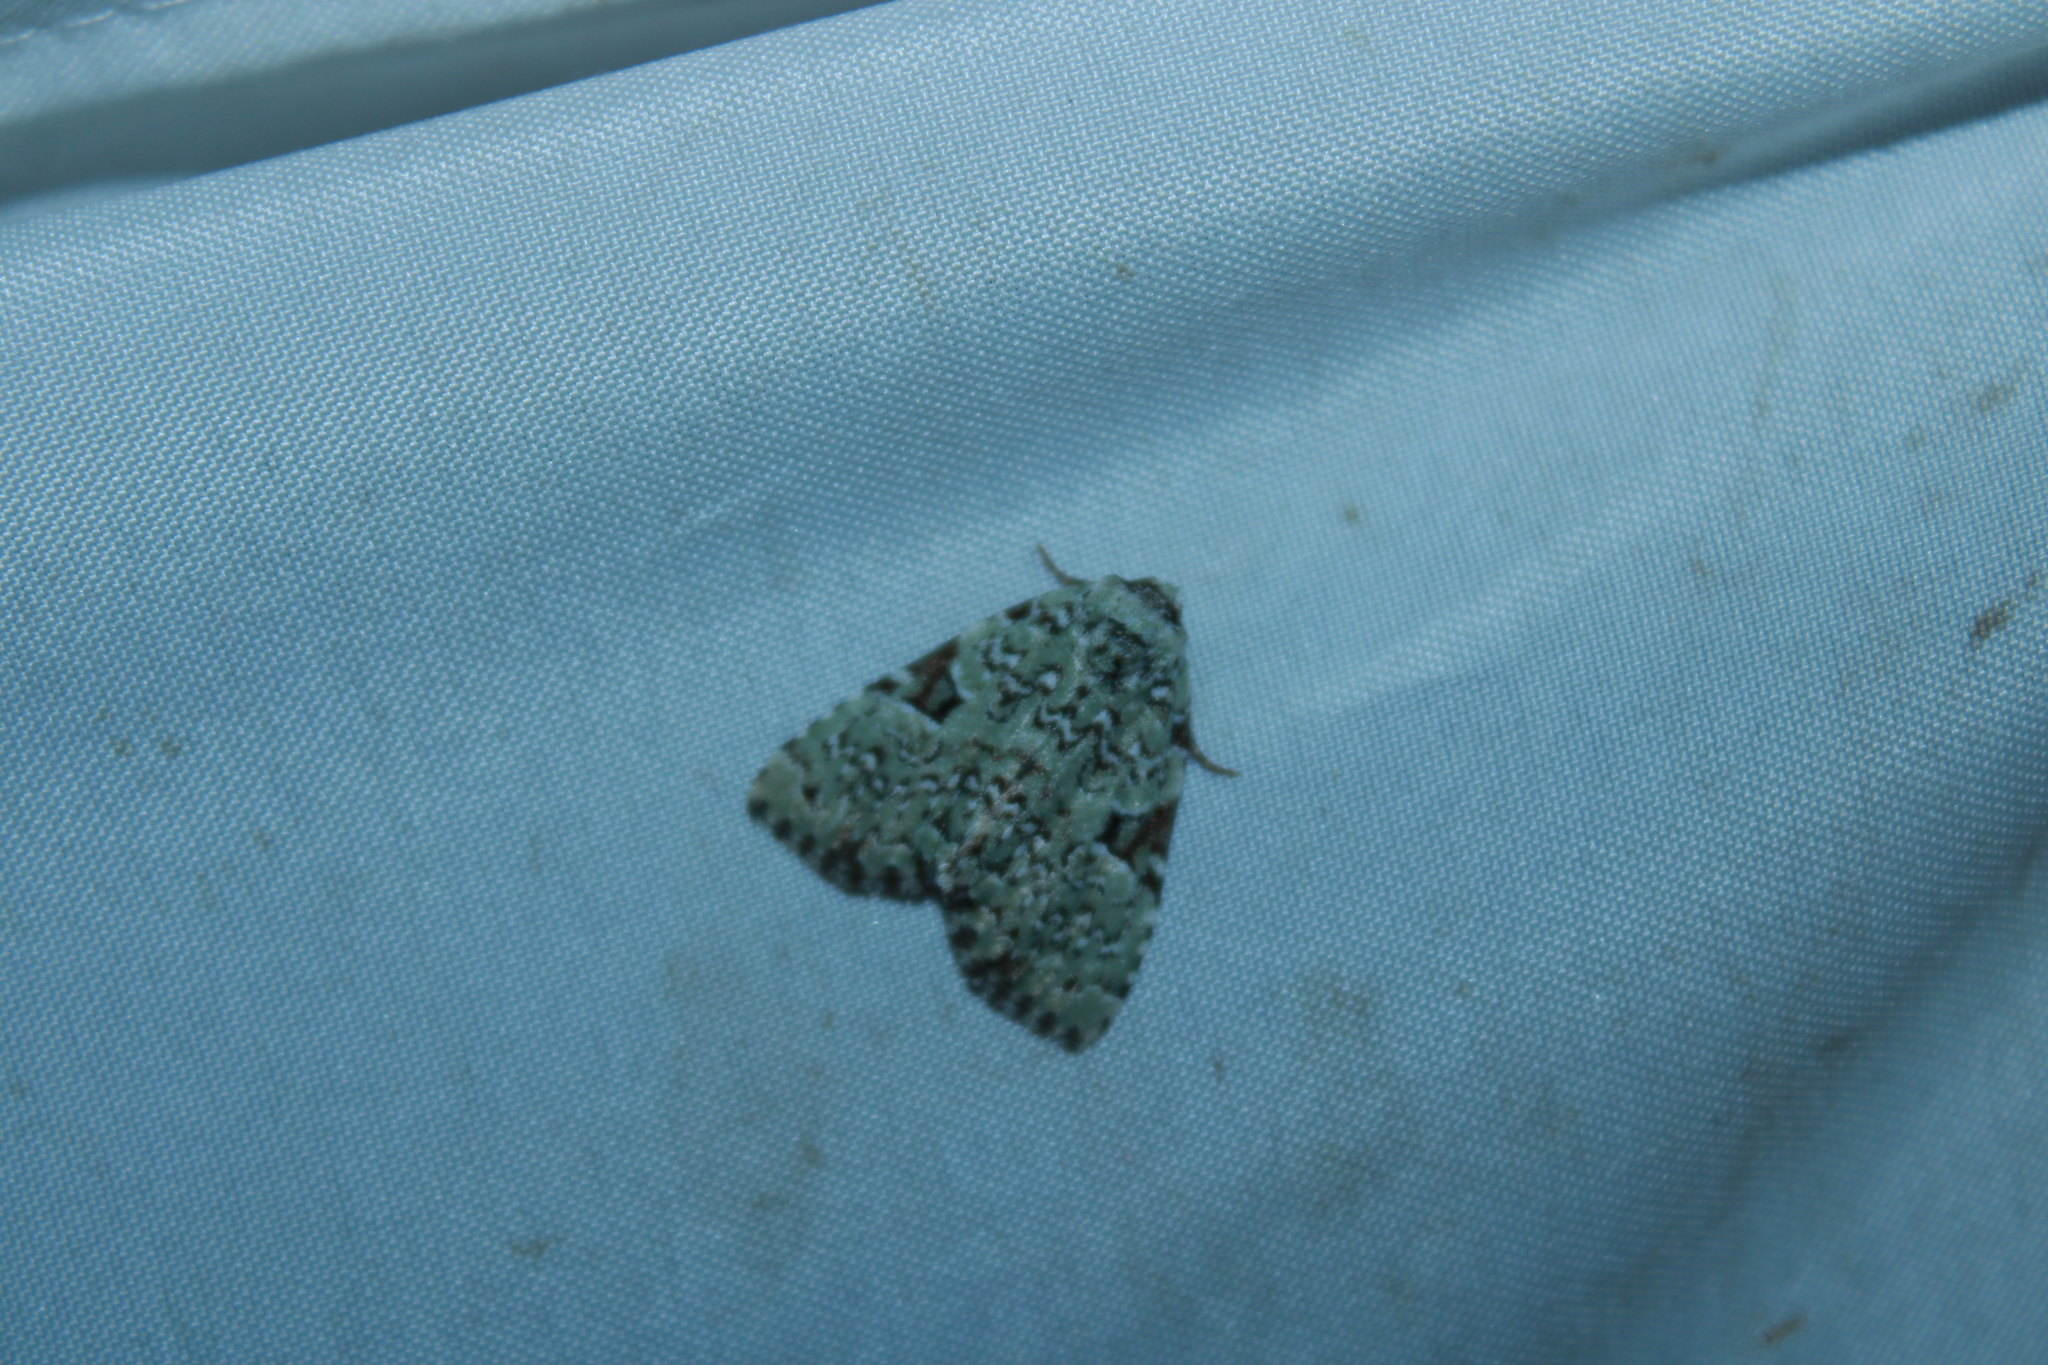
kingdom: Animalia
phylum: Arthropoda
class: Insecta
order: Lepidoptera
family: Noctuidae
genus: Leuconycta
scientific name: Leuconycta diphteroides
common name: Green leuconycta moth
